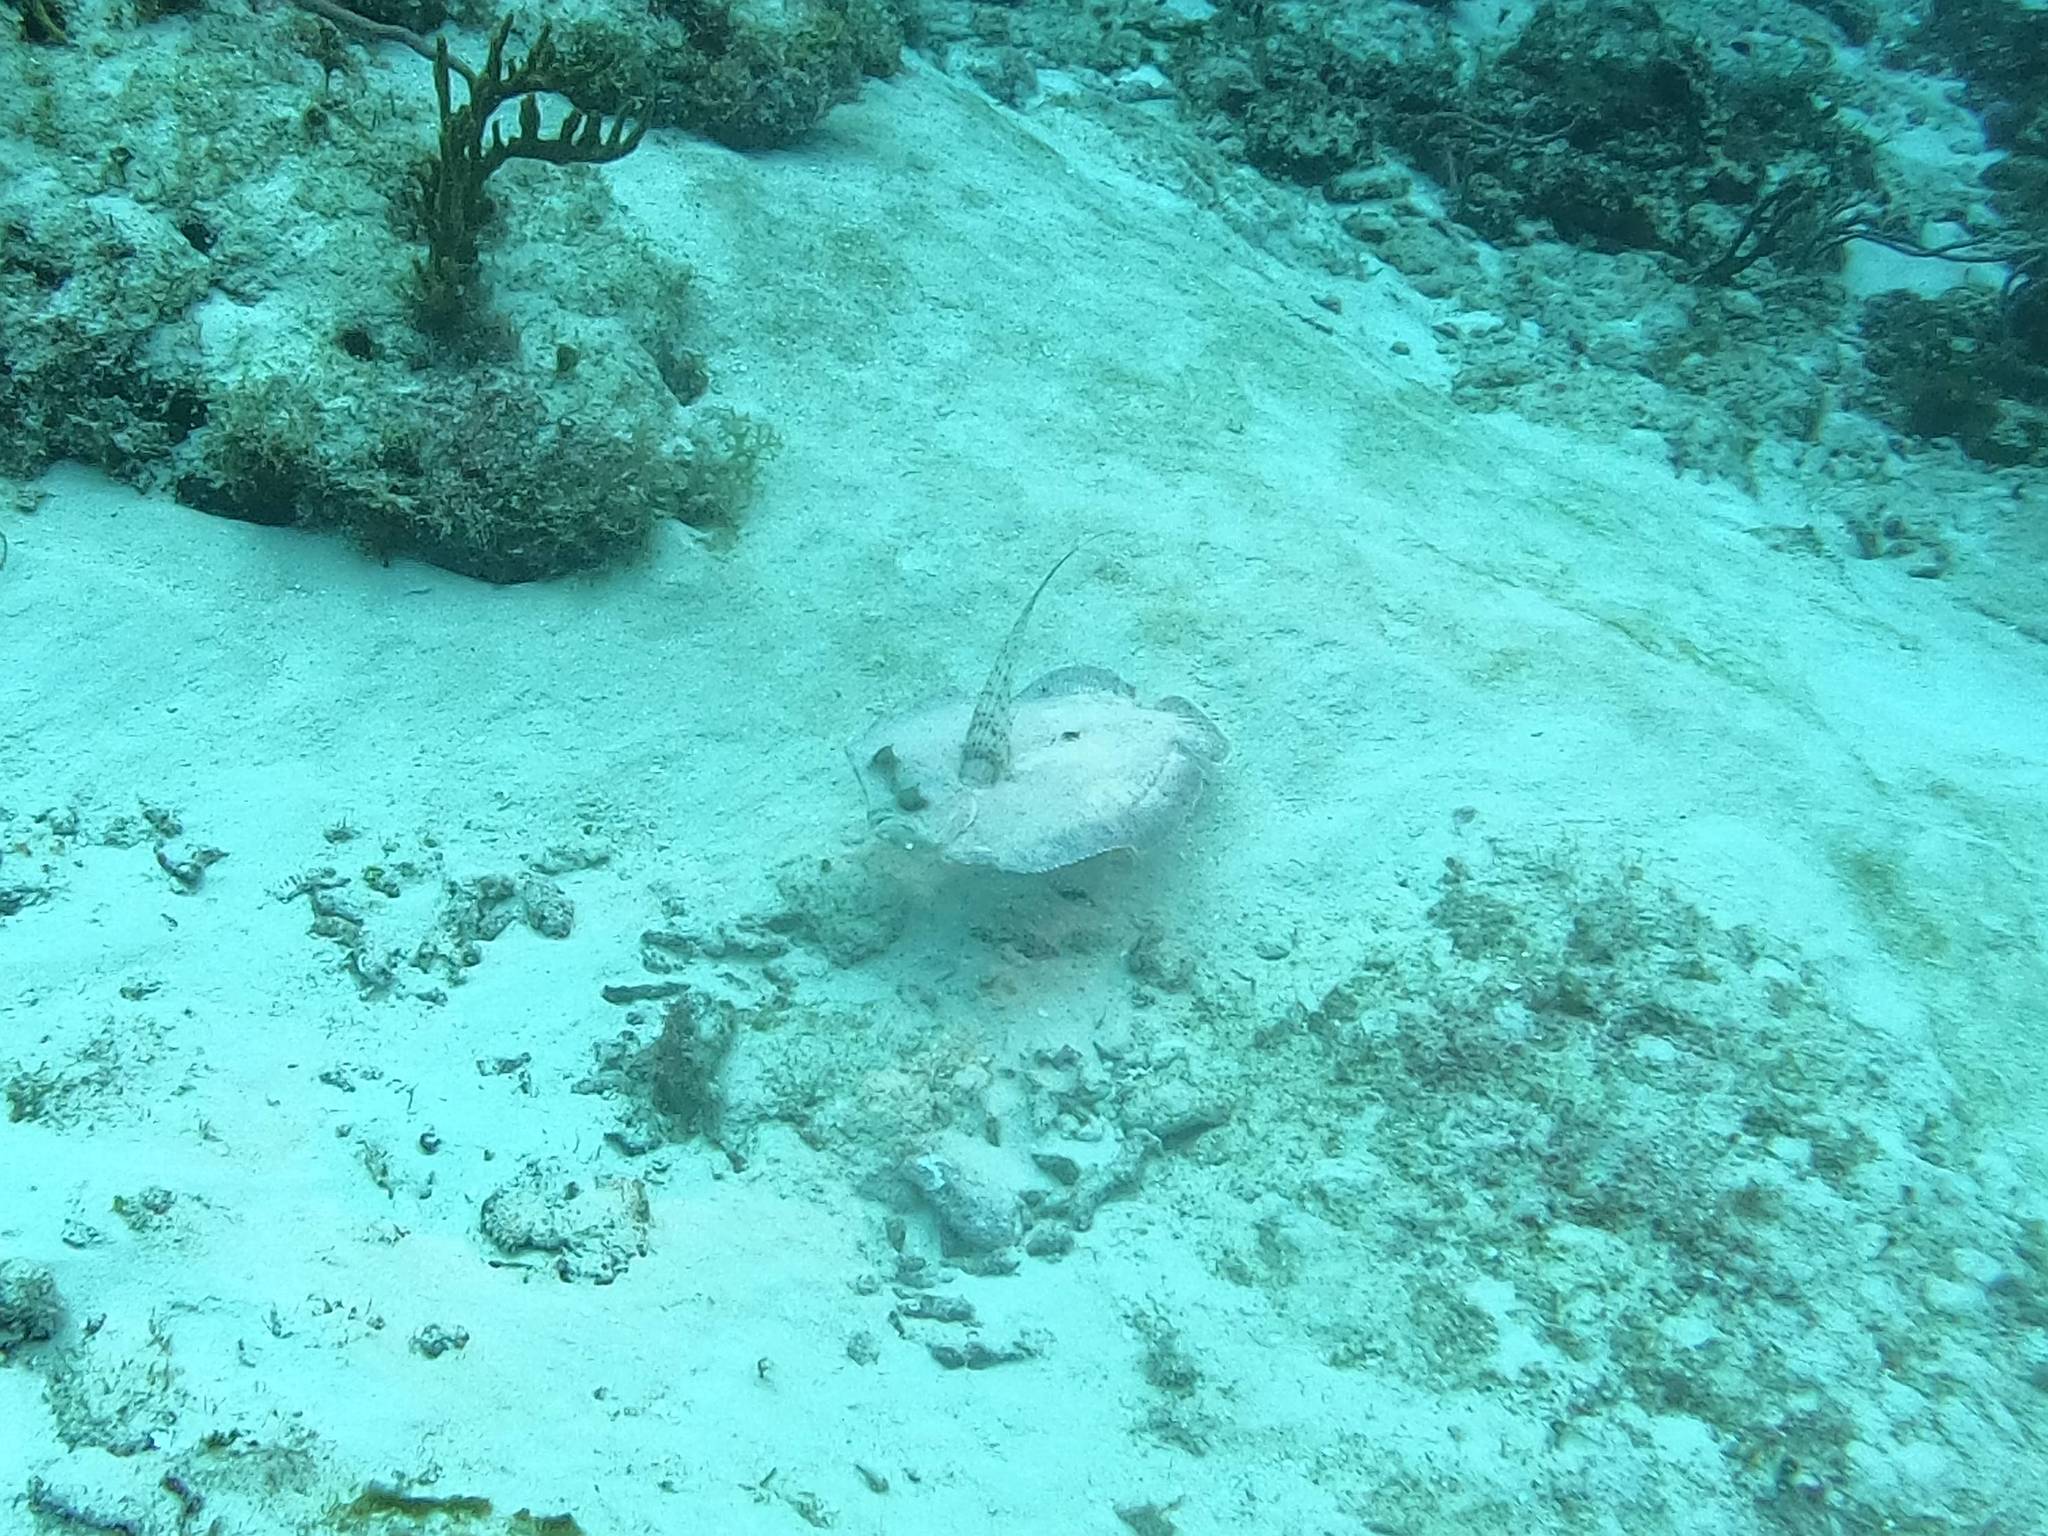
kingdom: Animalia
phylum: Chordata
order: Pleuronectiformes
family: Bothidae
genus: Bothus
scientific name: Bothus lunatus
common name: Peacock flounder
